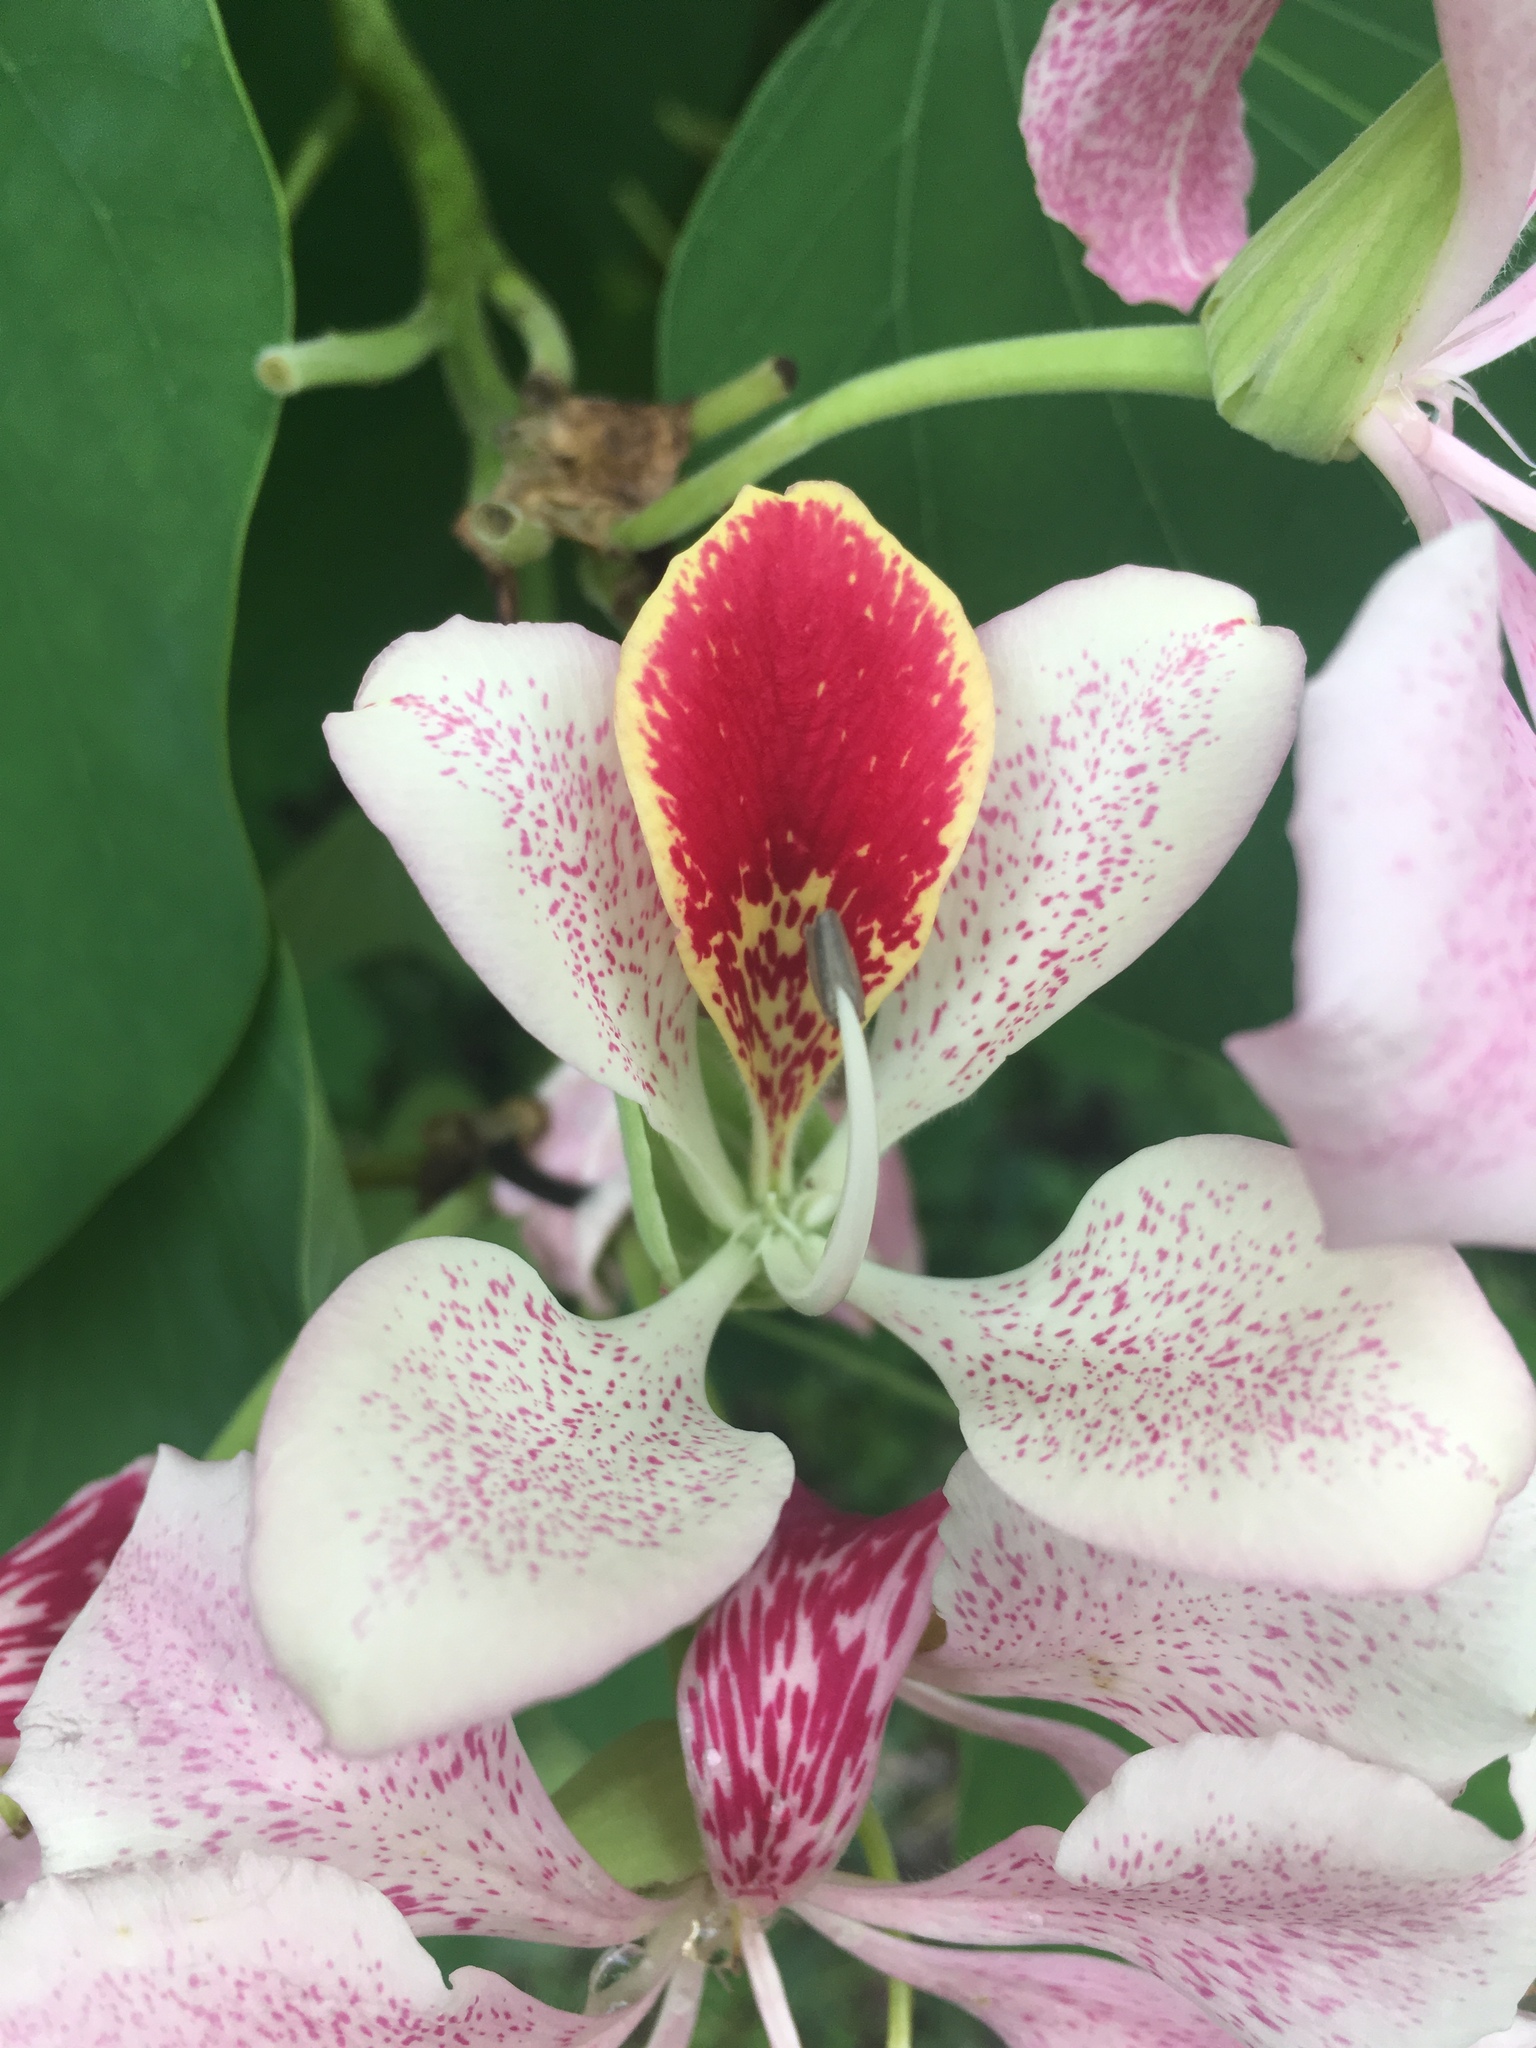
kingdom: Plantae
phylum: Tracheophyta
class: Magnoliopsida
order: Fabales
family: Fabaceae
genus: Bauhinia
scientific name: Bauhinia monandra
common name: Napoleon's plume
